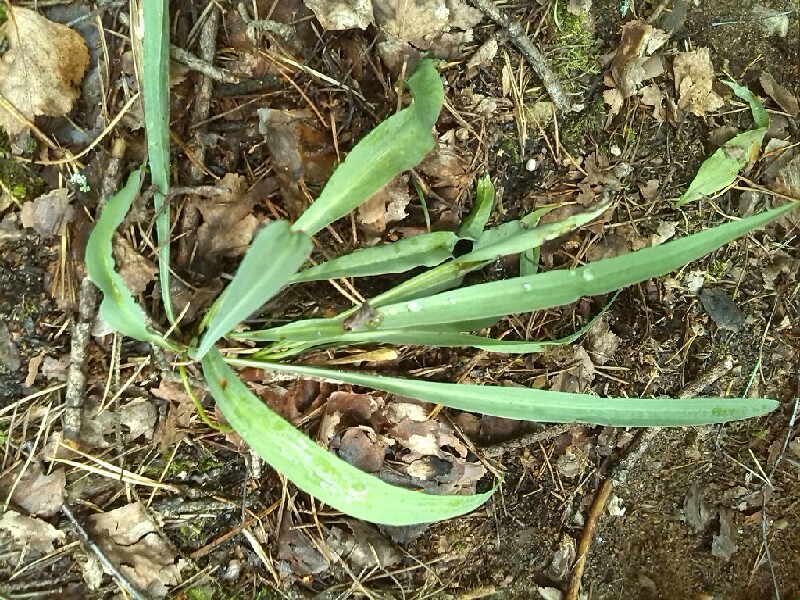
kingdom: Plantae
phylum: Tracheophyta
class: Magnoliopsida
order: Asterales
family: Asteraceae
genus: Scorzonera
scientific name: Scorzonera glabra
